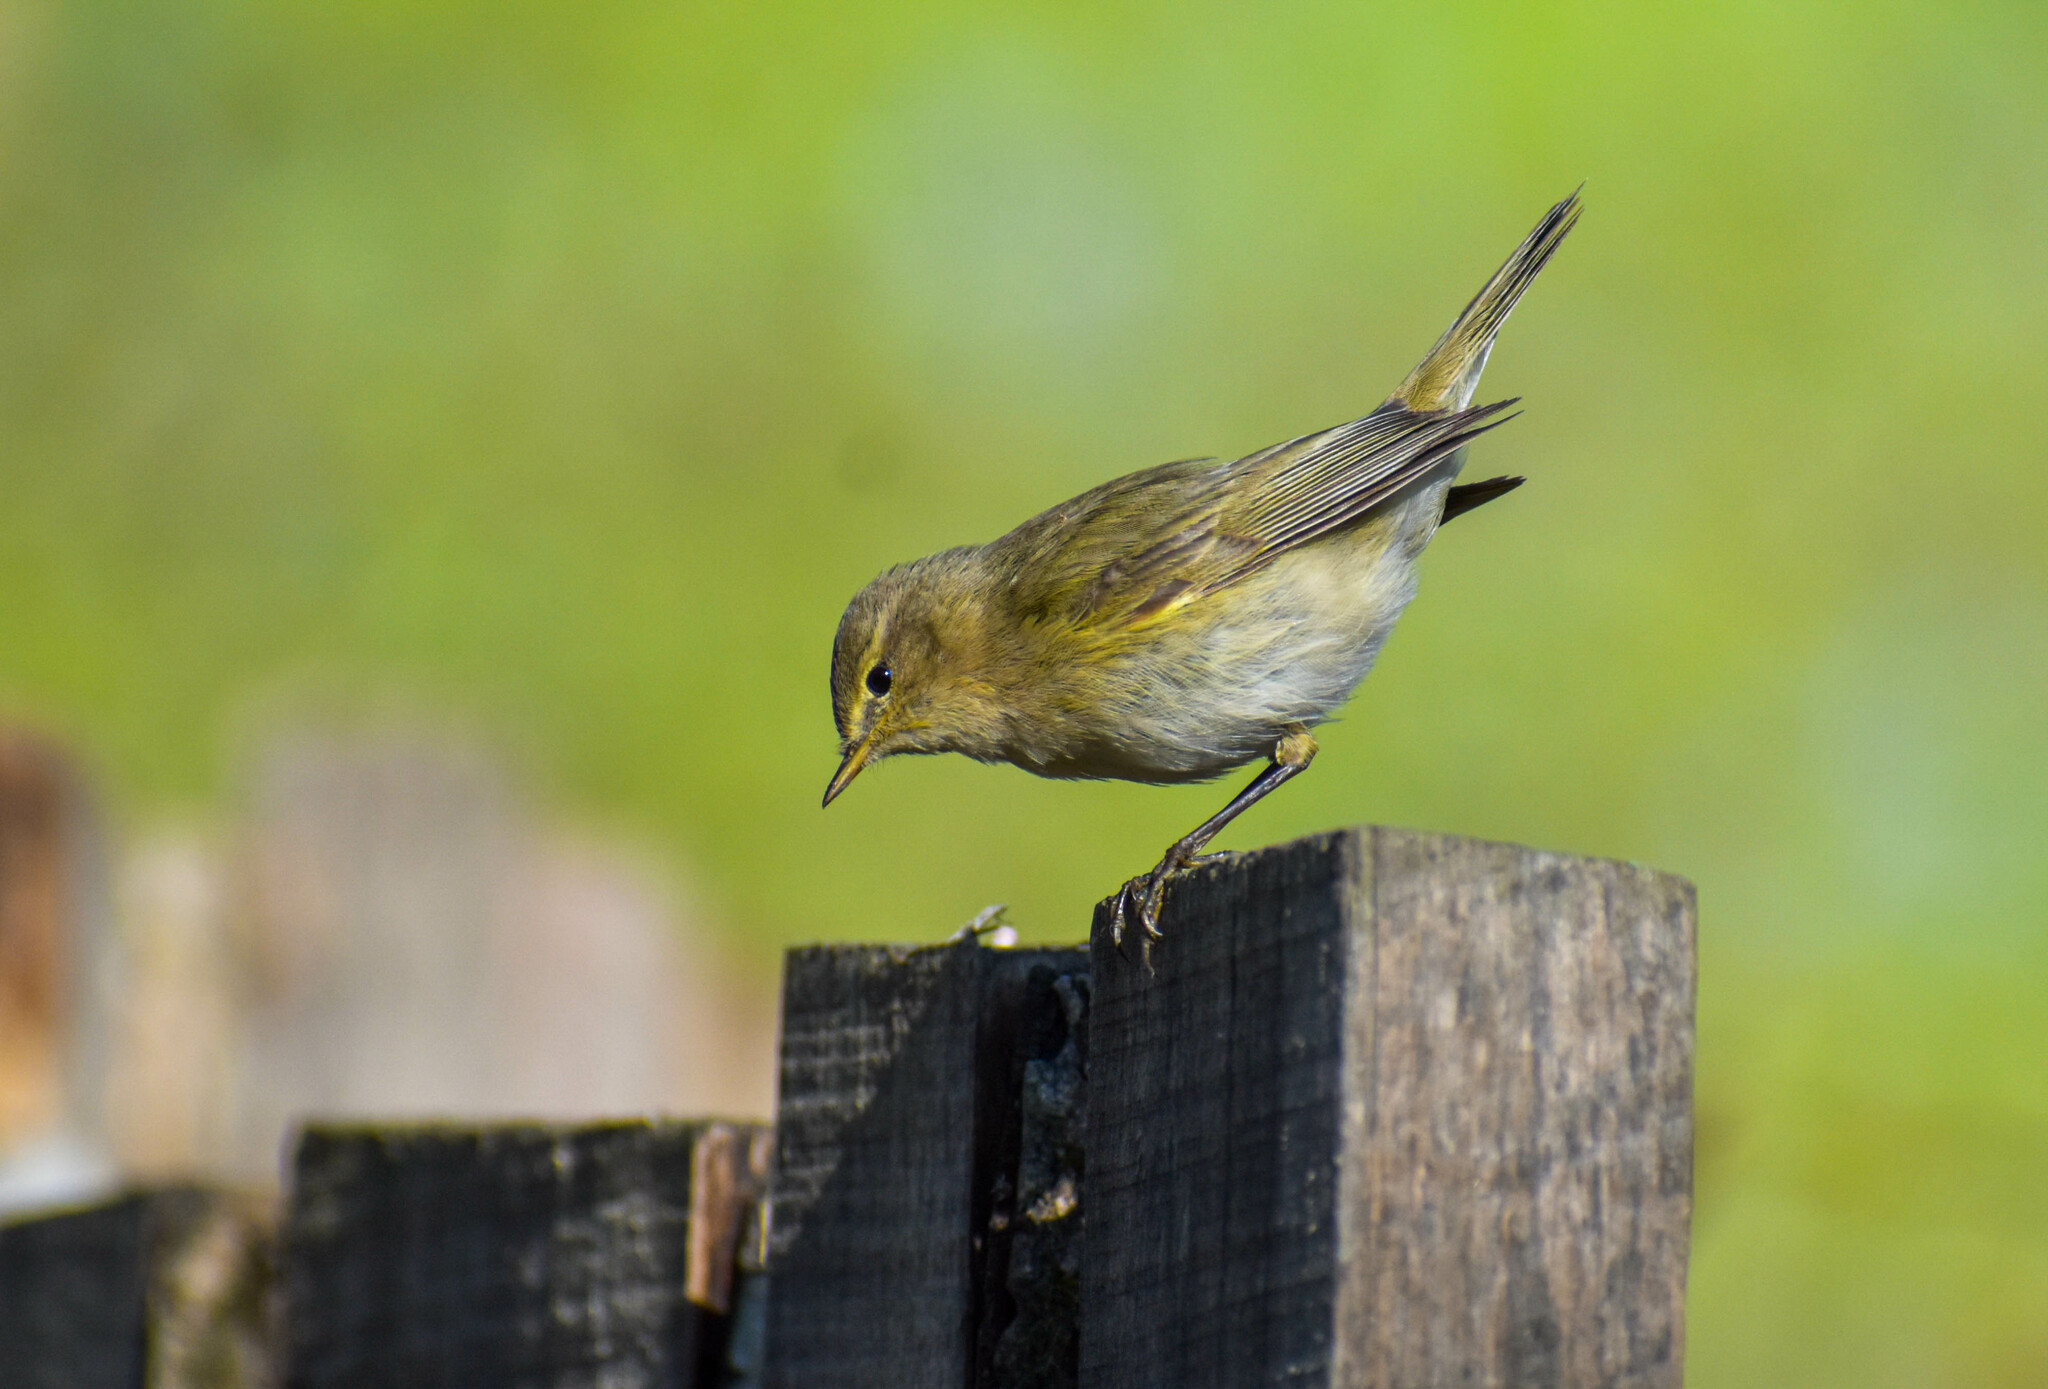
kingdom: Animalia
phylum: Chordata
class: Aves
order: Passeriformes
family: Phylloscopidae
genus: Phylloscopus
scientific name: Phylloscopus collybita
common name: Common chiffchaff
